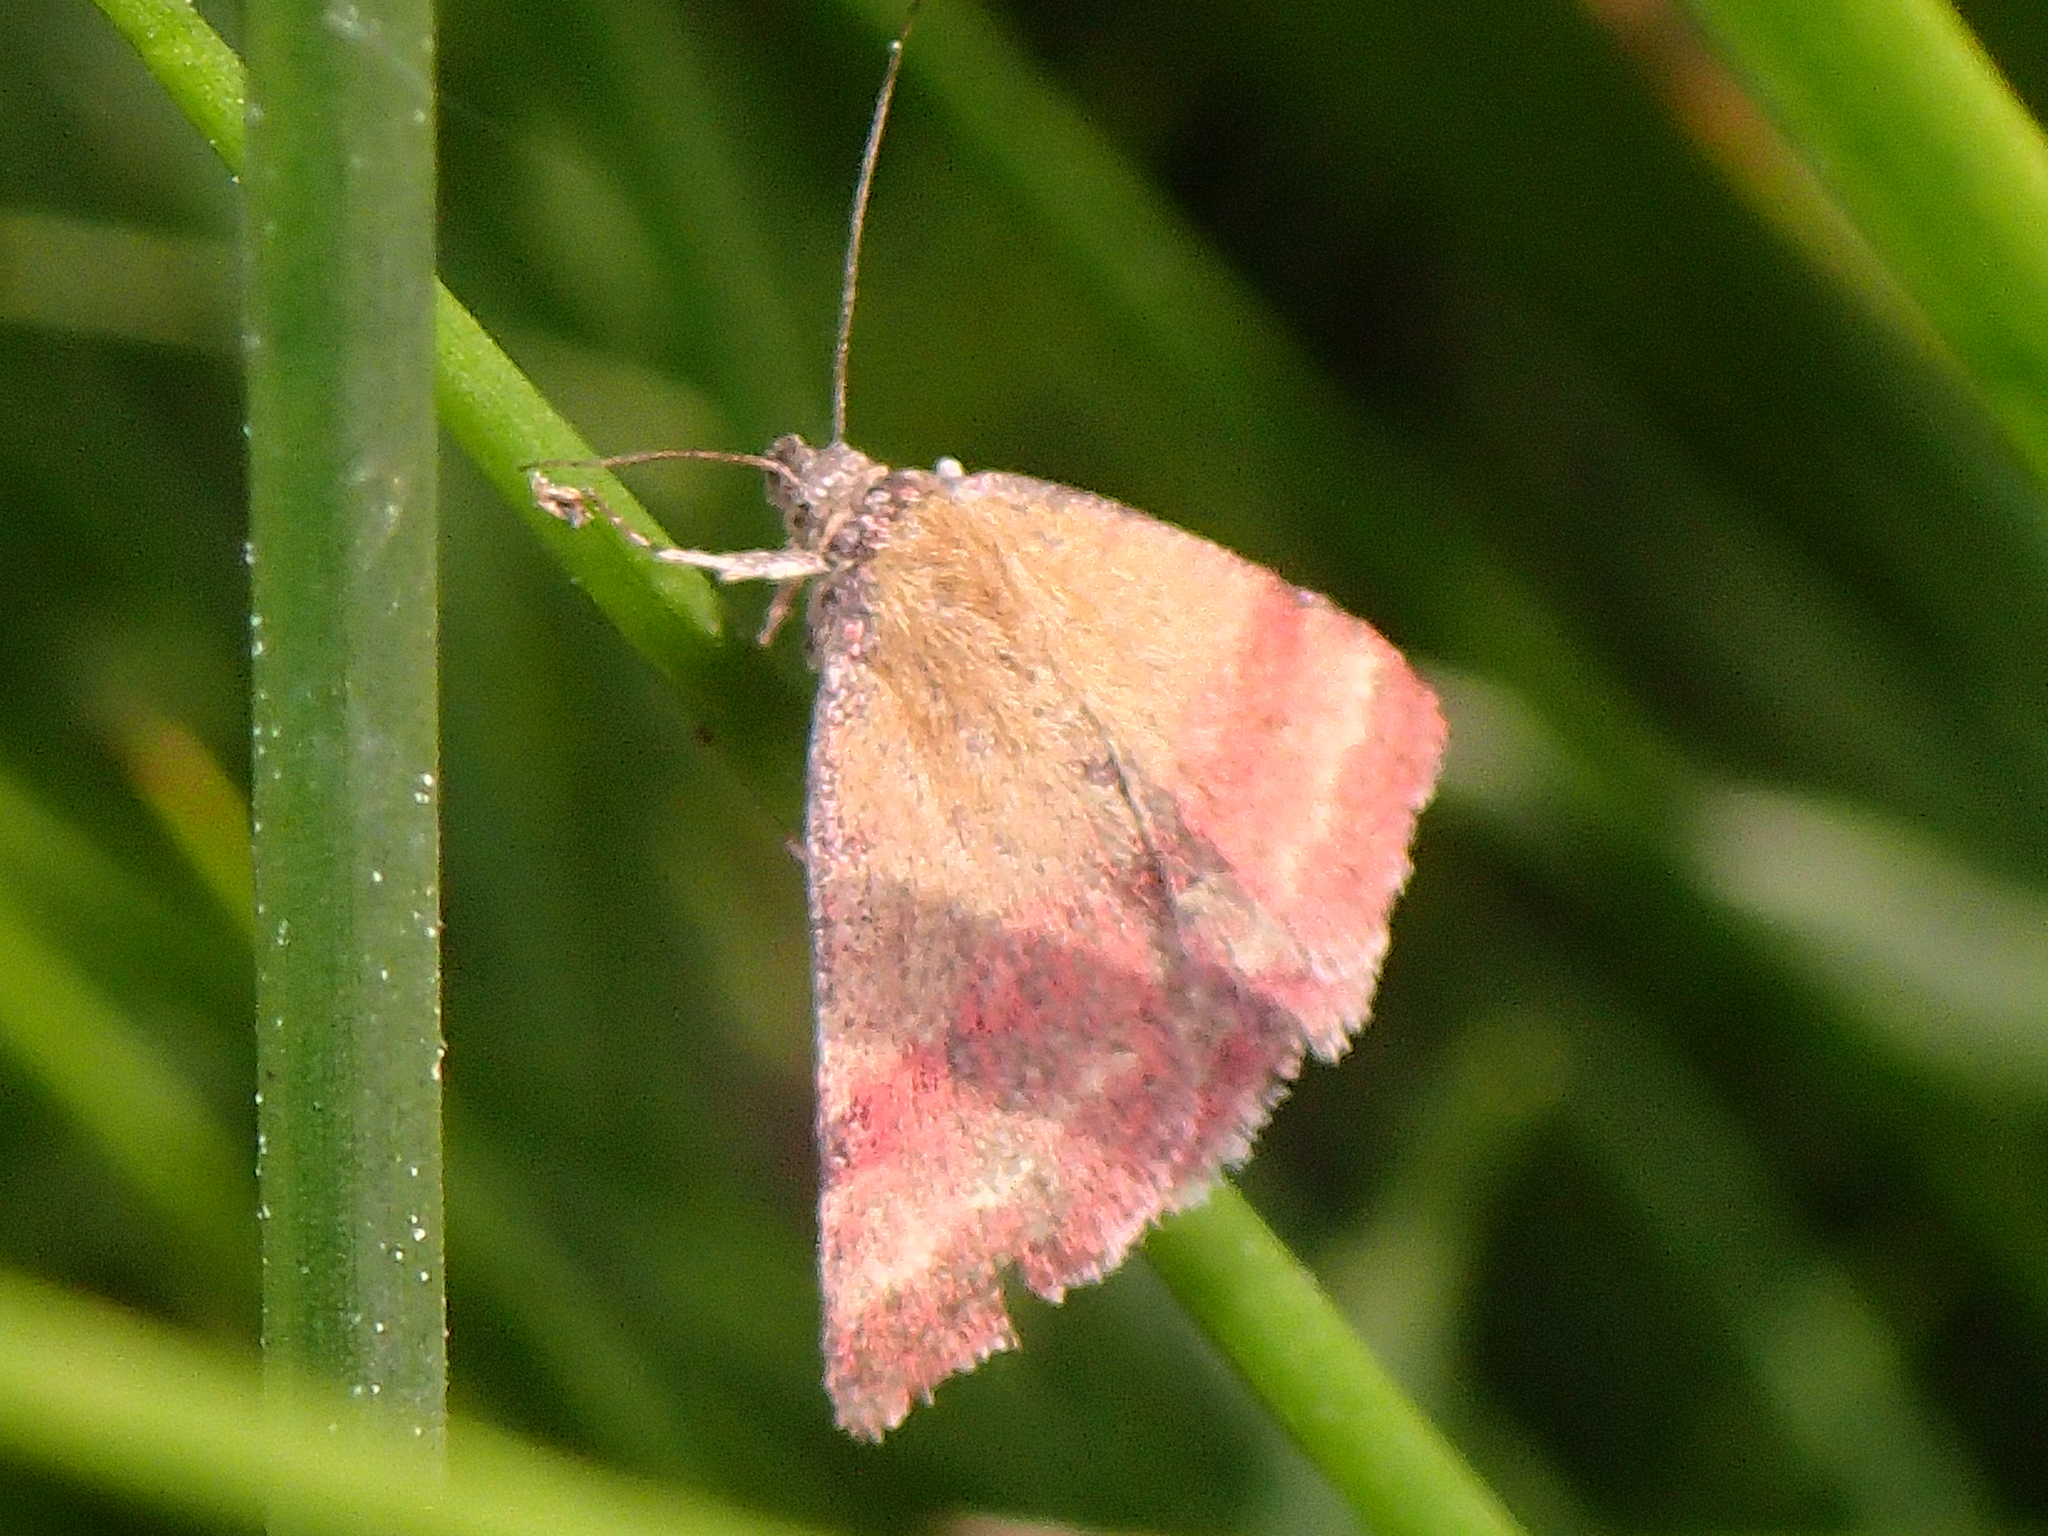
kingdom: Animalia
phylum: Arthropoda
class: Insecta
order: Lepidoptera
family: Erebidae
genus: Phytometra
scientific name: Phytometra viridaria
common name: Small purple-barred
